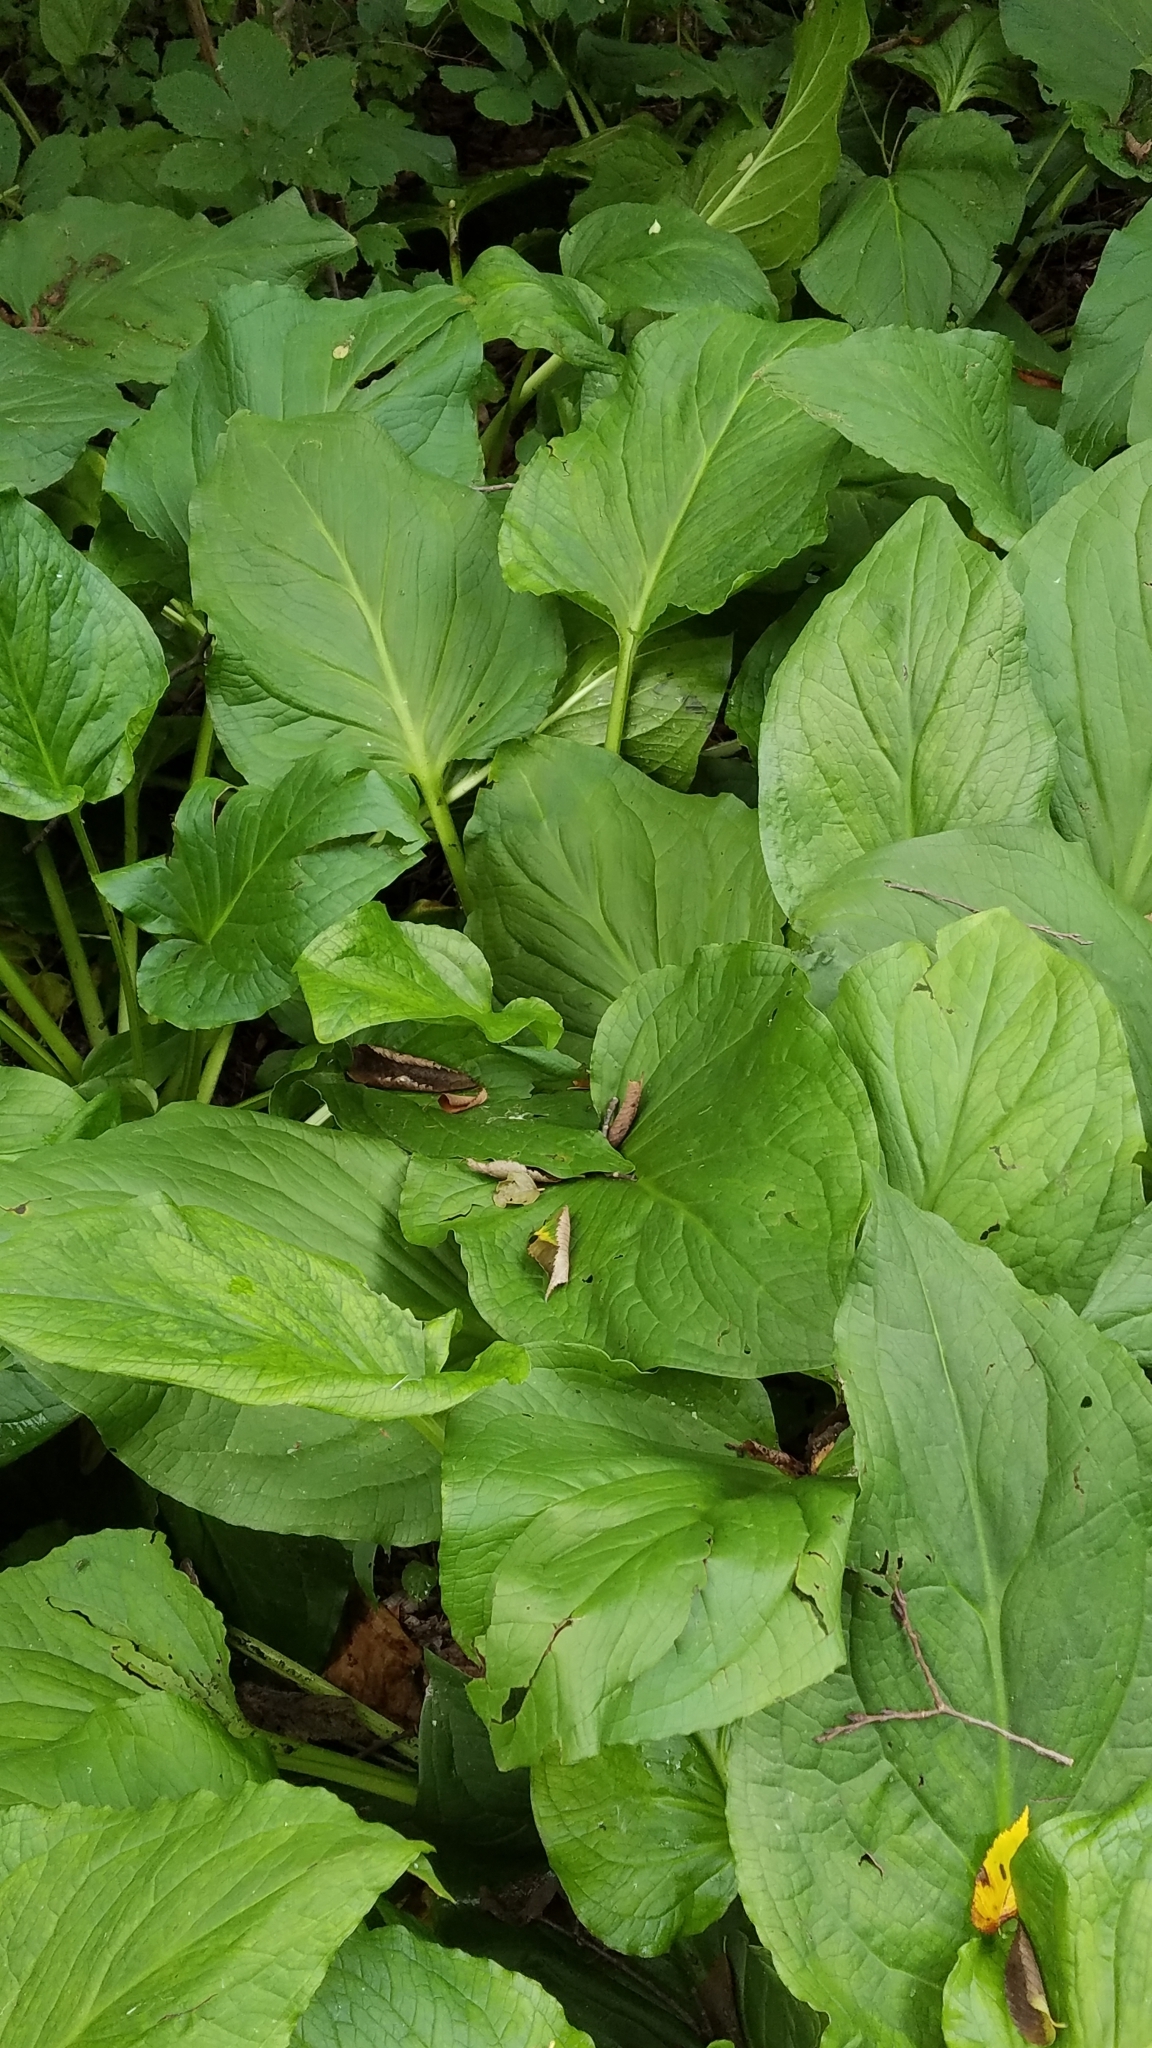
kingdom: Plantae
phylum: Tracheophyta
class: Liliopsida
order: Alismatales
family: Araceae
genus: Symplocarpus
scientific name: Symplocarpus foetidus
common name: Eastern skunk cabbage
